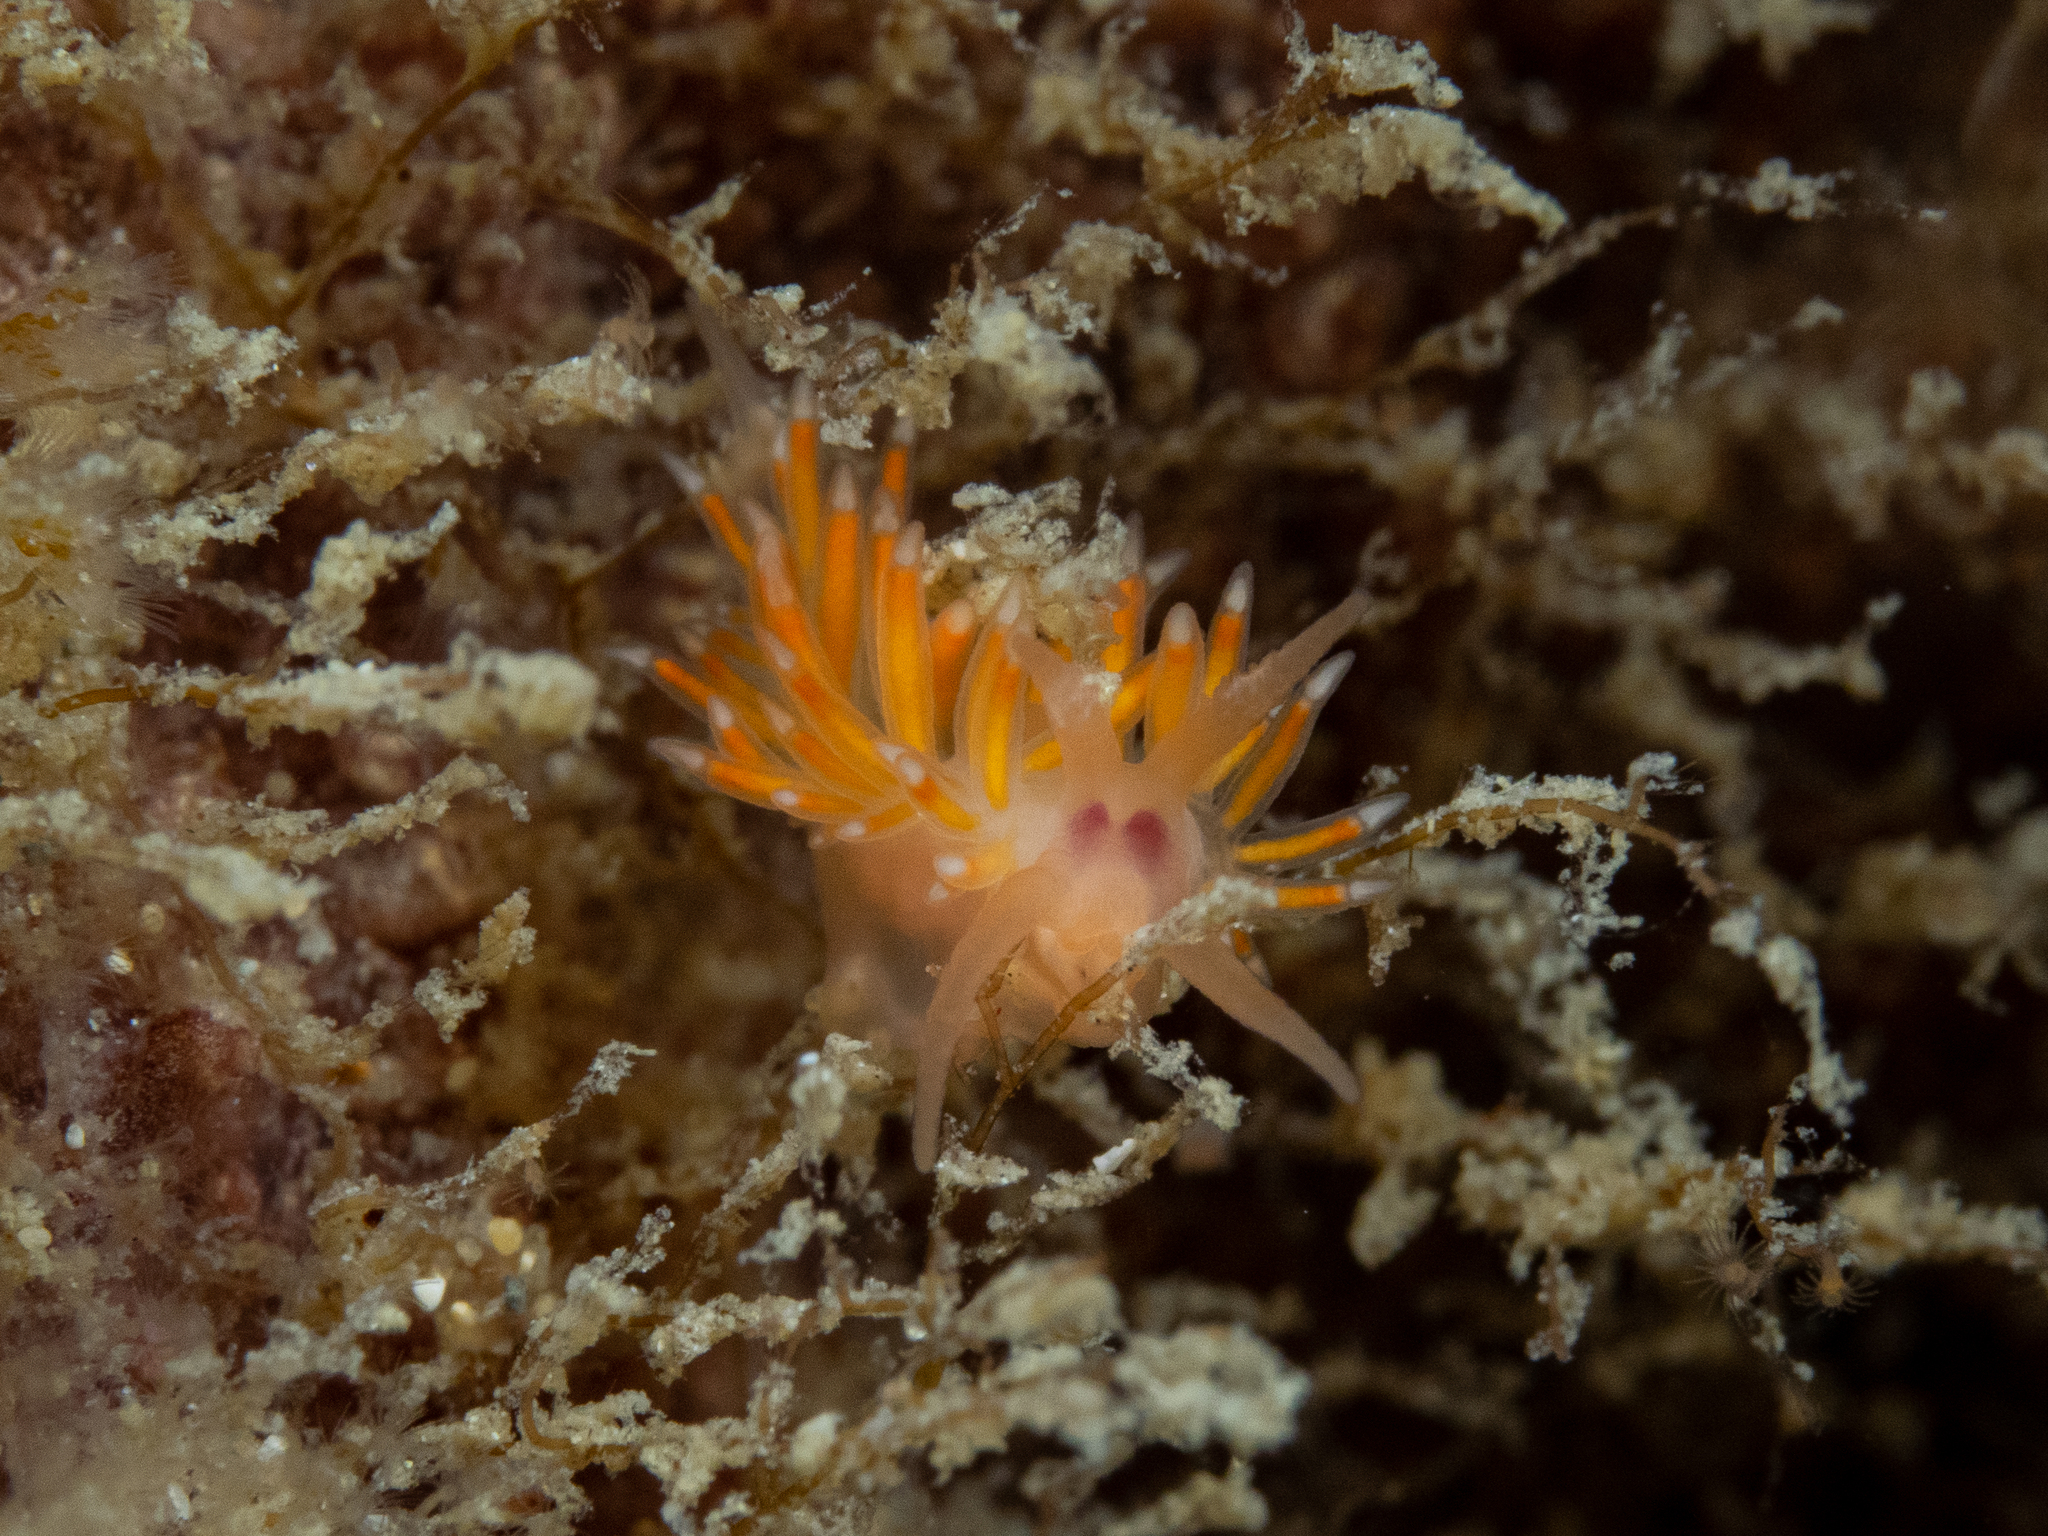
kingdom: Animalia
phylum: Mollusca
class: Gastropoda
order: Nudibranchia
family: Flabellinidae
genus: Coryphellina
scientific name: Coryphellina poenicia
